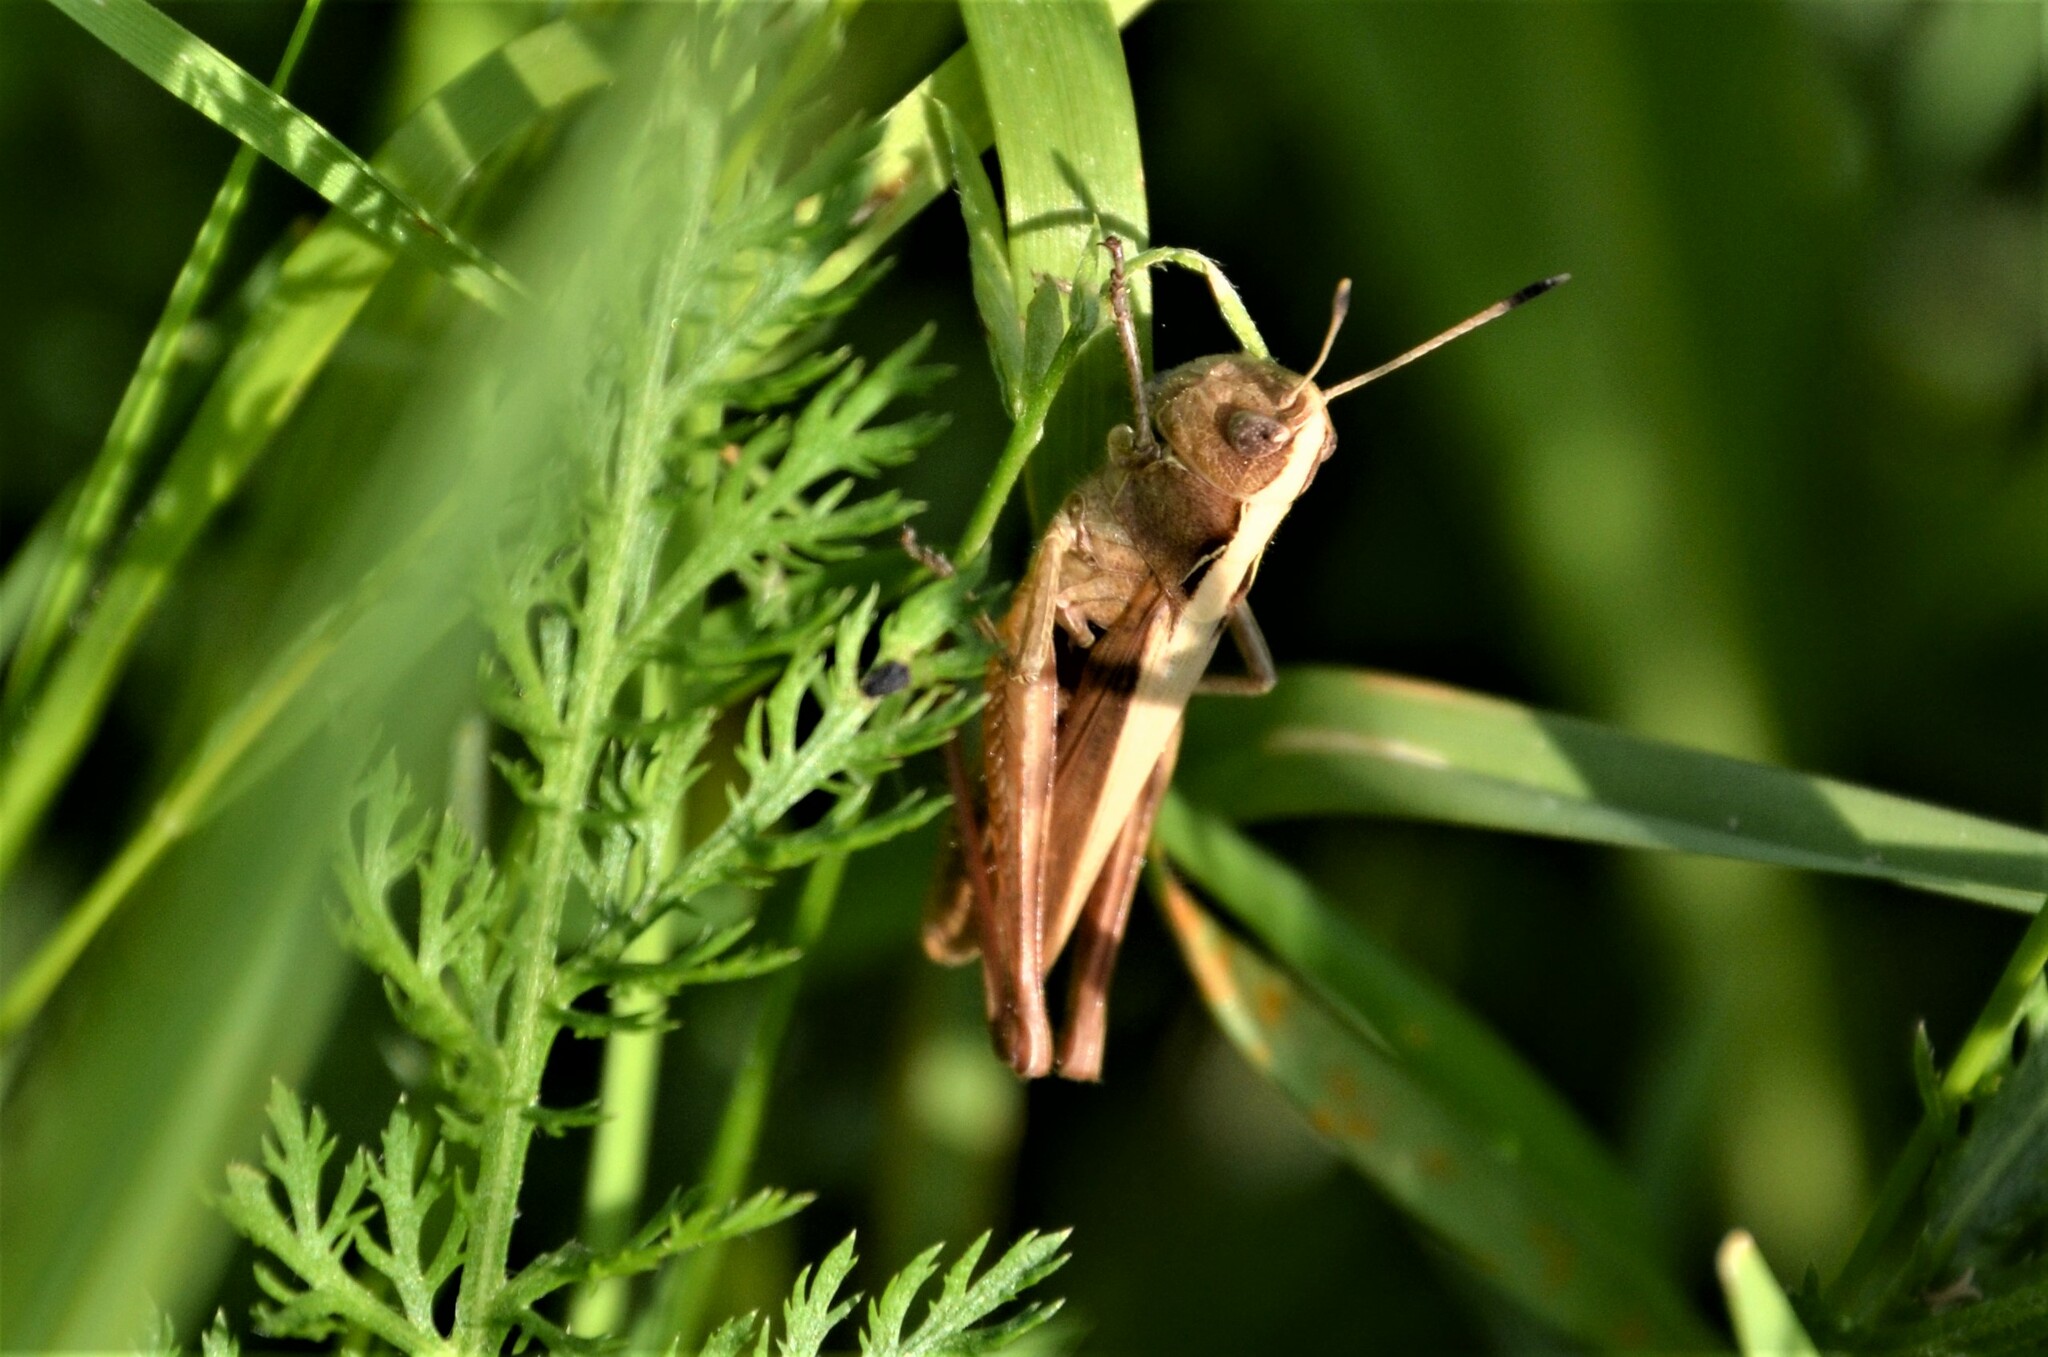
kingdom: Animalia
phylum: Arthropoda
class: Insecta
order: Orthoptera
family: Acrididae
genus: Gomphocerippus
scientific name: Gomphocerippus rufus
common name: Rufous grasshopper
